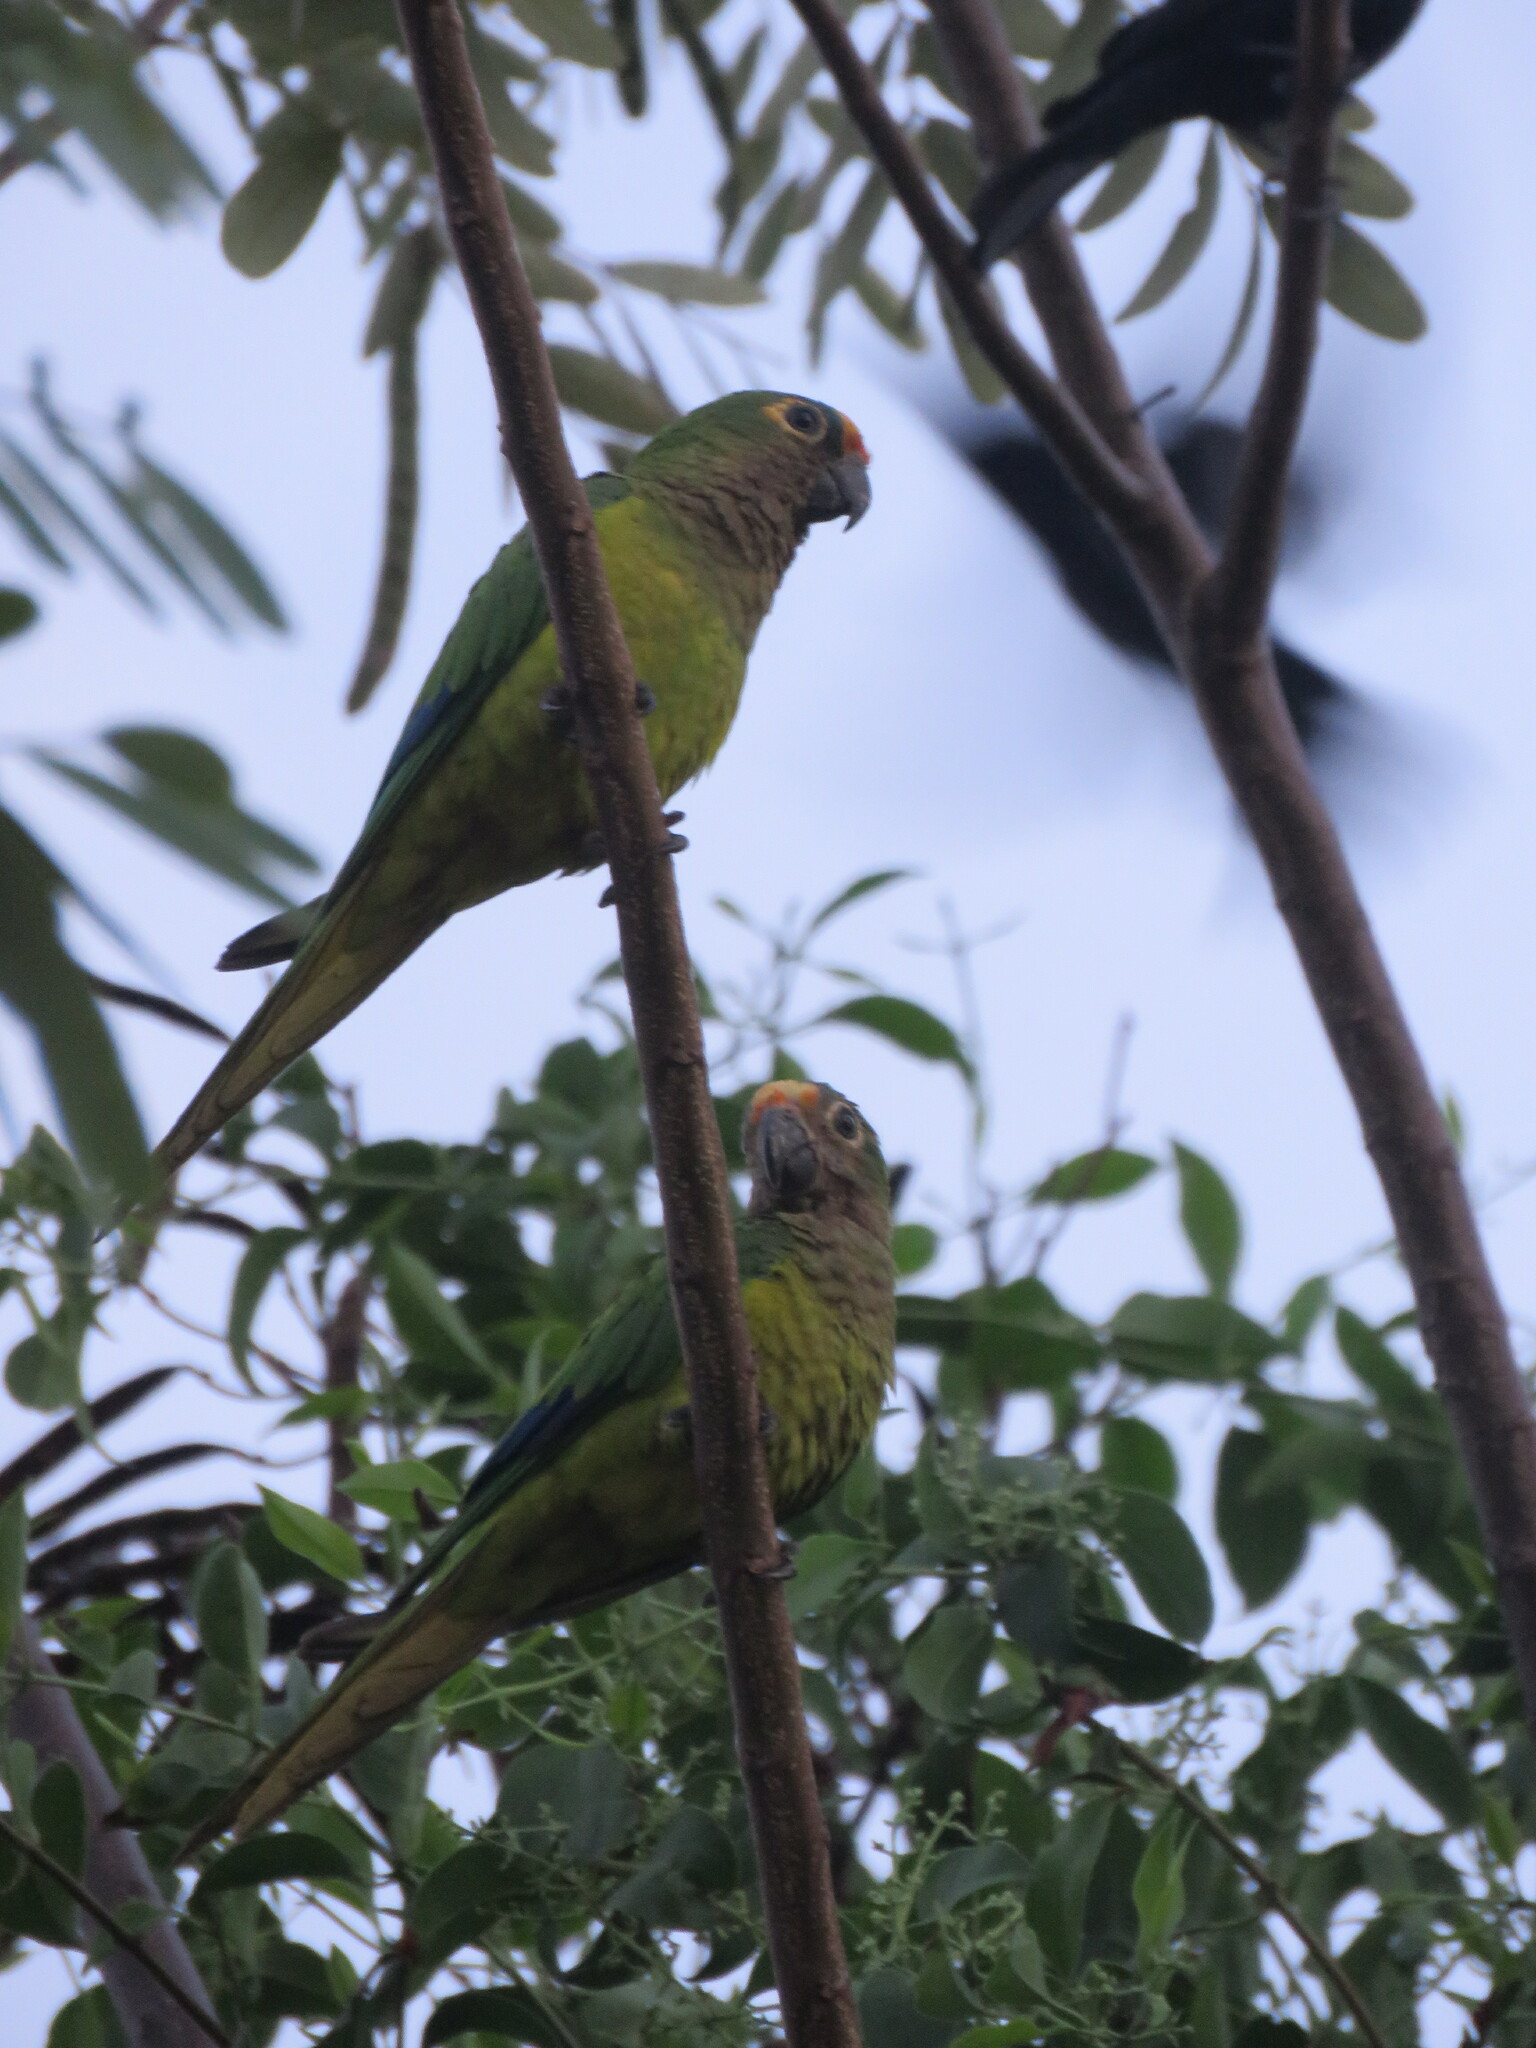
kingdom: Animalia
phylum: Chordata
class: Aves
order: Psittaciformes
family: Psittacidae
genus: Aratinga
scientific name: Aratinga aurea
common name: Peach-fronted parakeet
